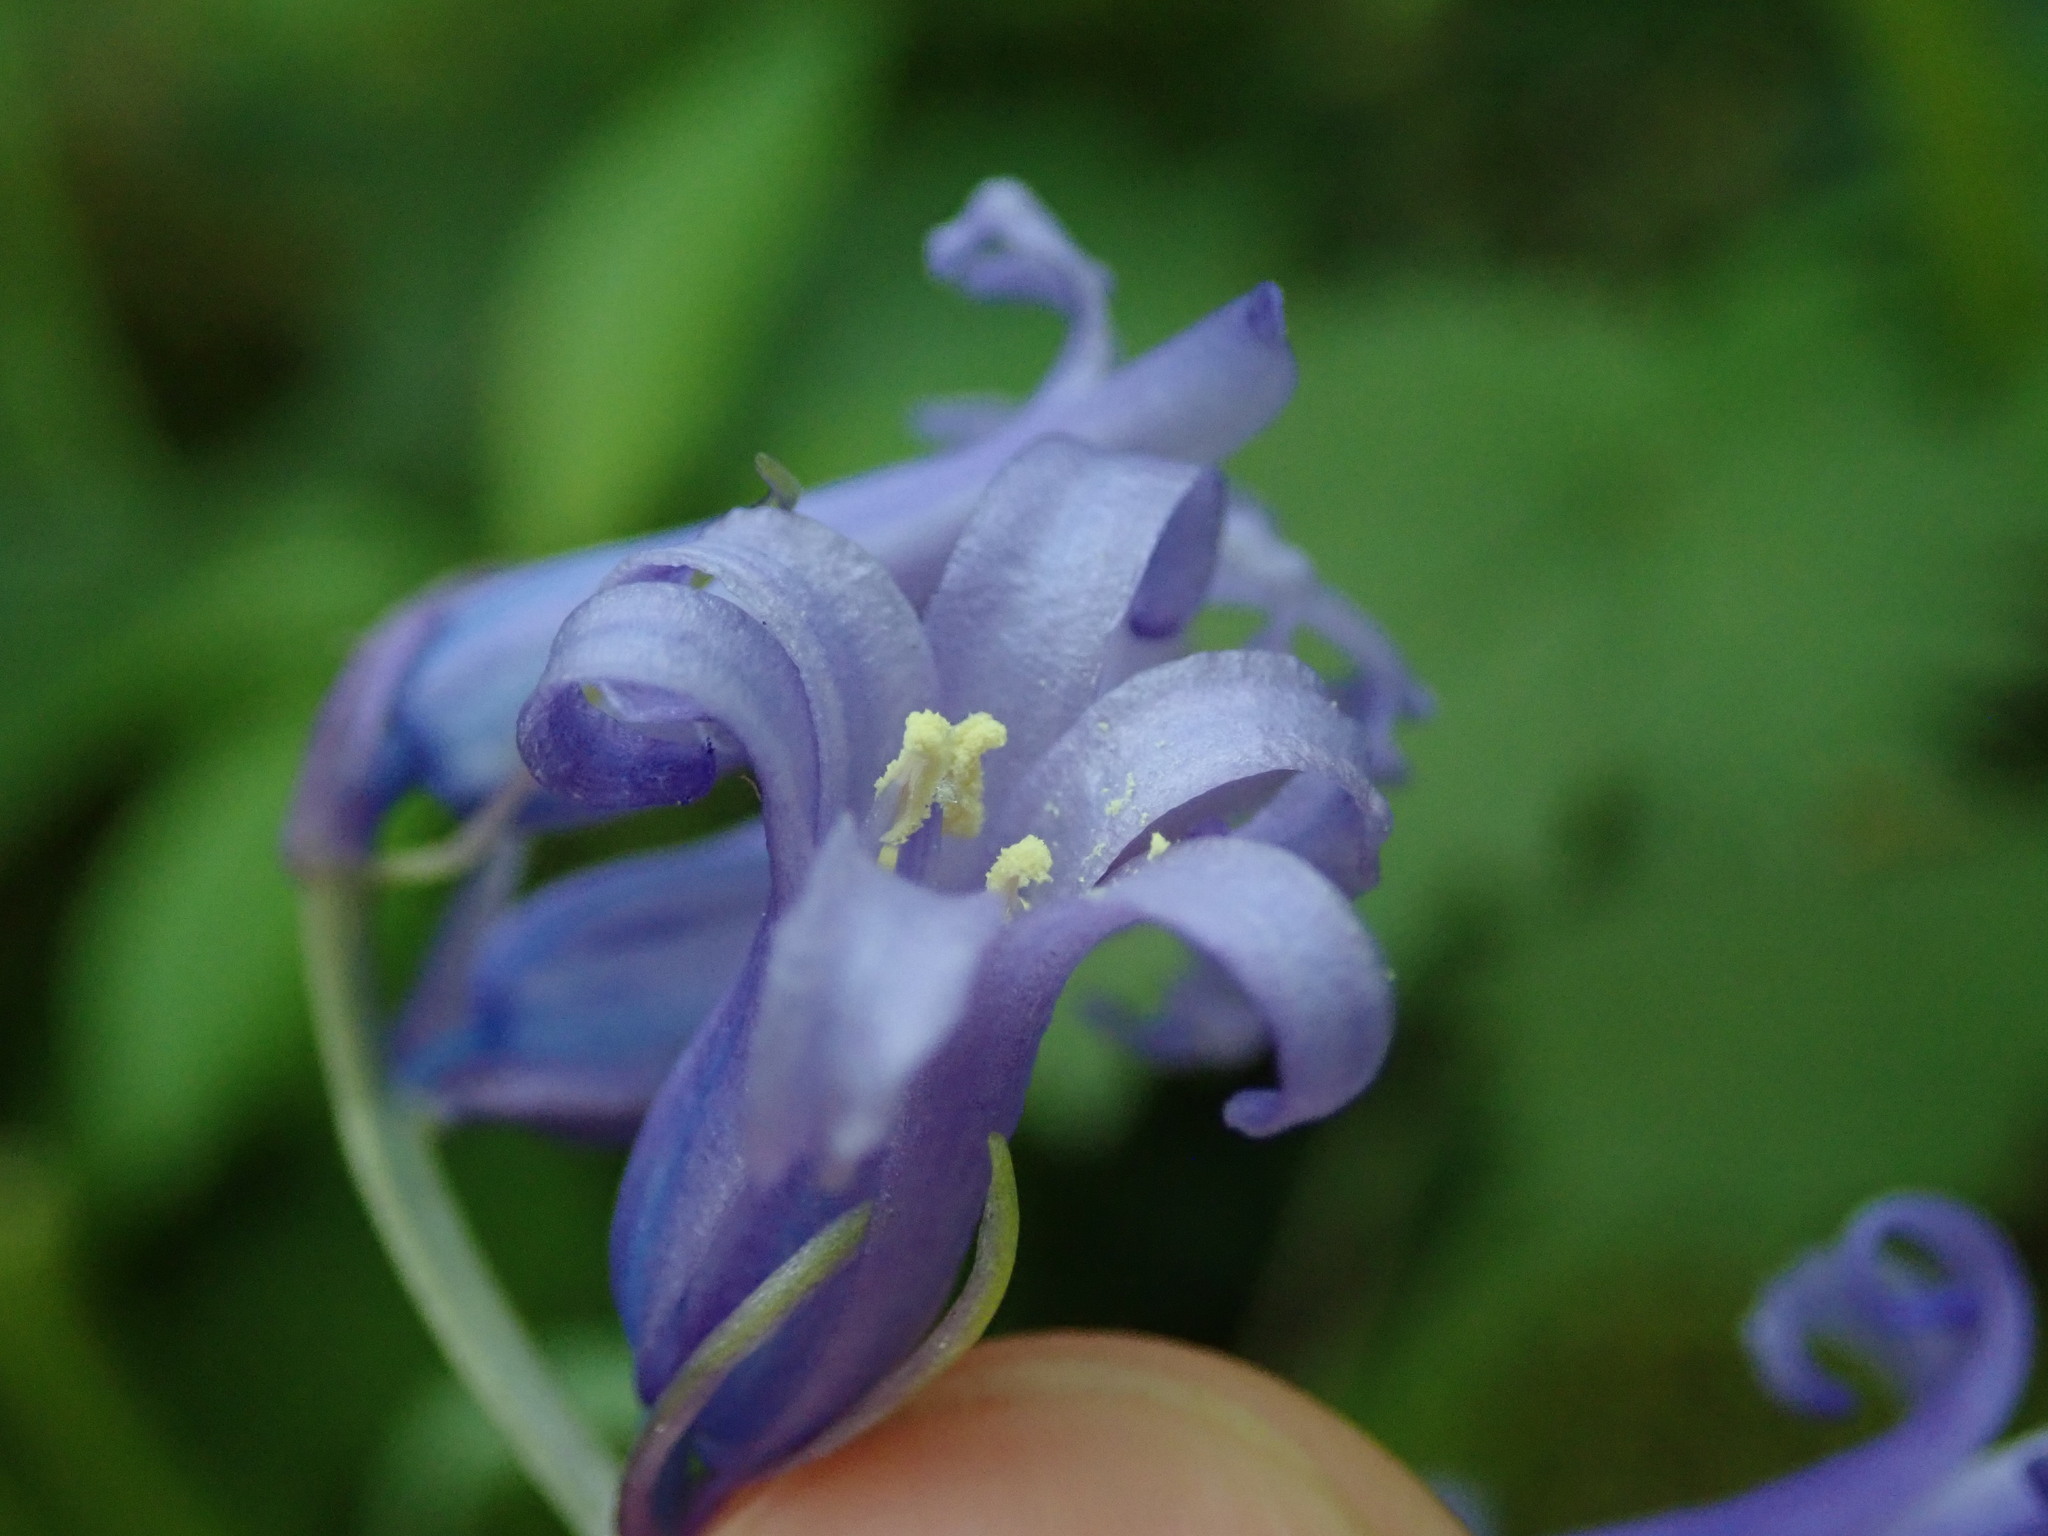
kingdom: Plantae
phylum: Tracheophyta
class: Liliopsida
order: Asparagales
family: Asparagaceae
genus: Hyacinthoides
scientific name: Hyacinthoides non-scripta
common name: Bluebell
